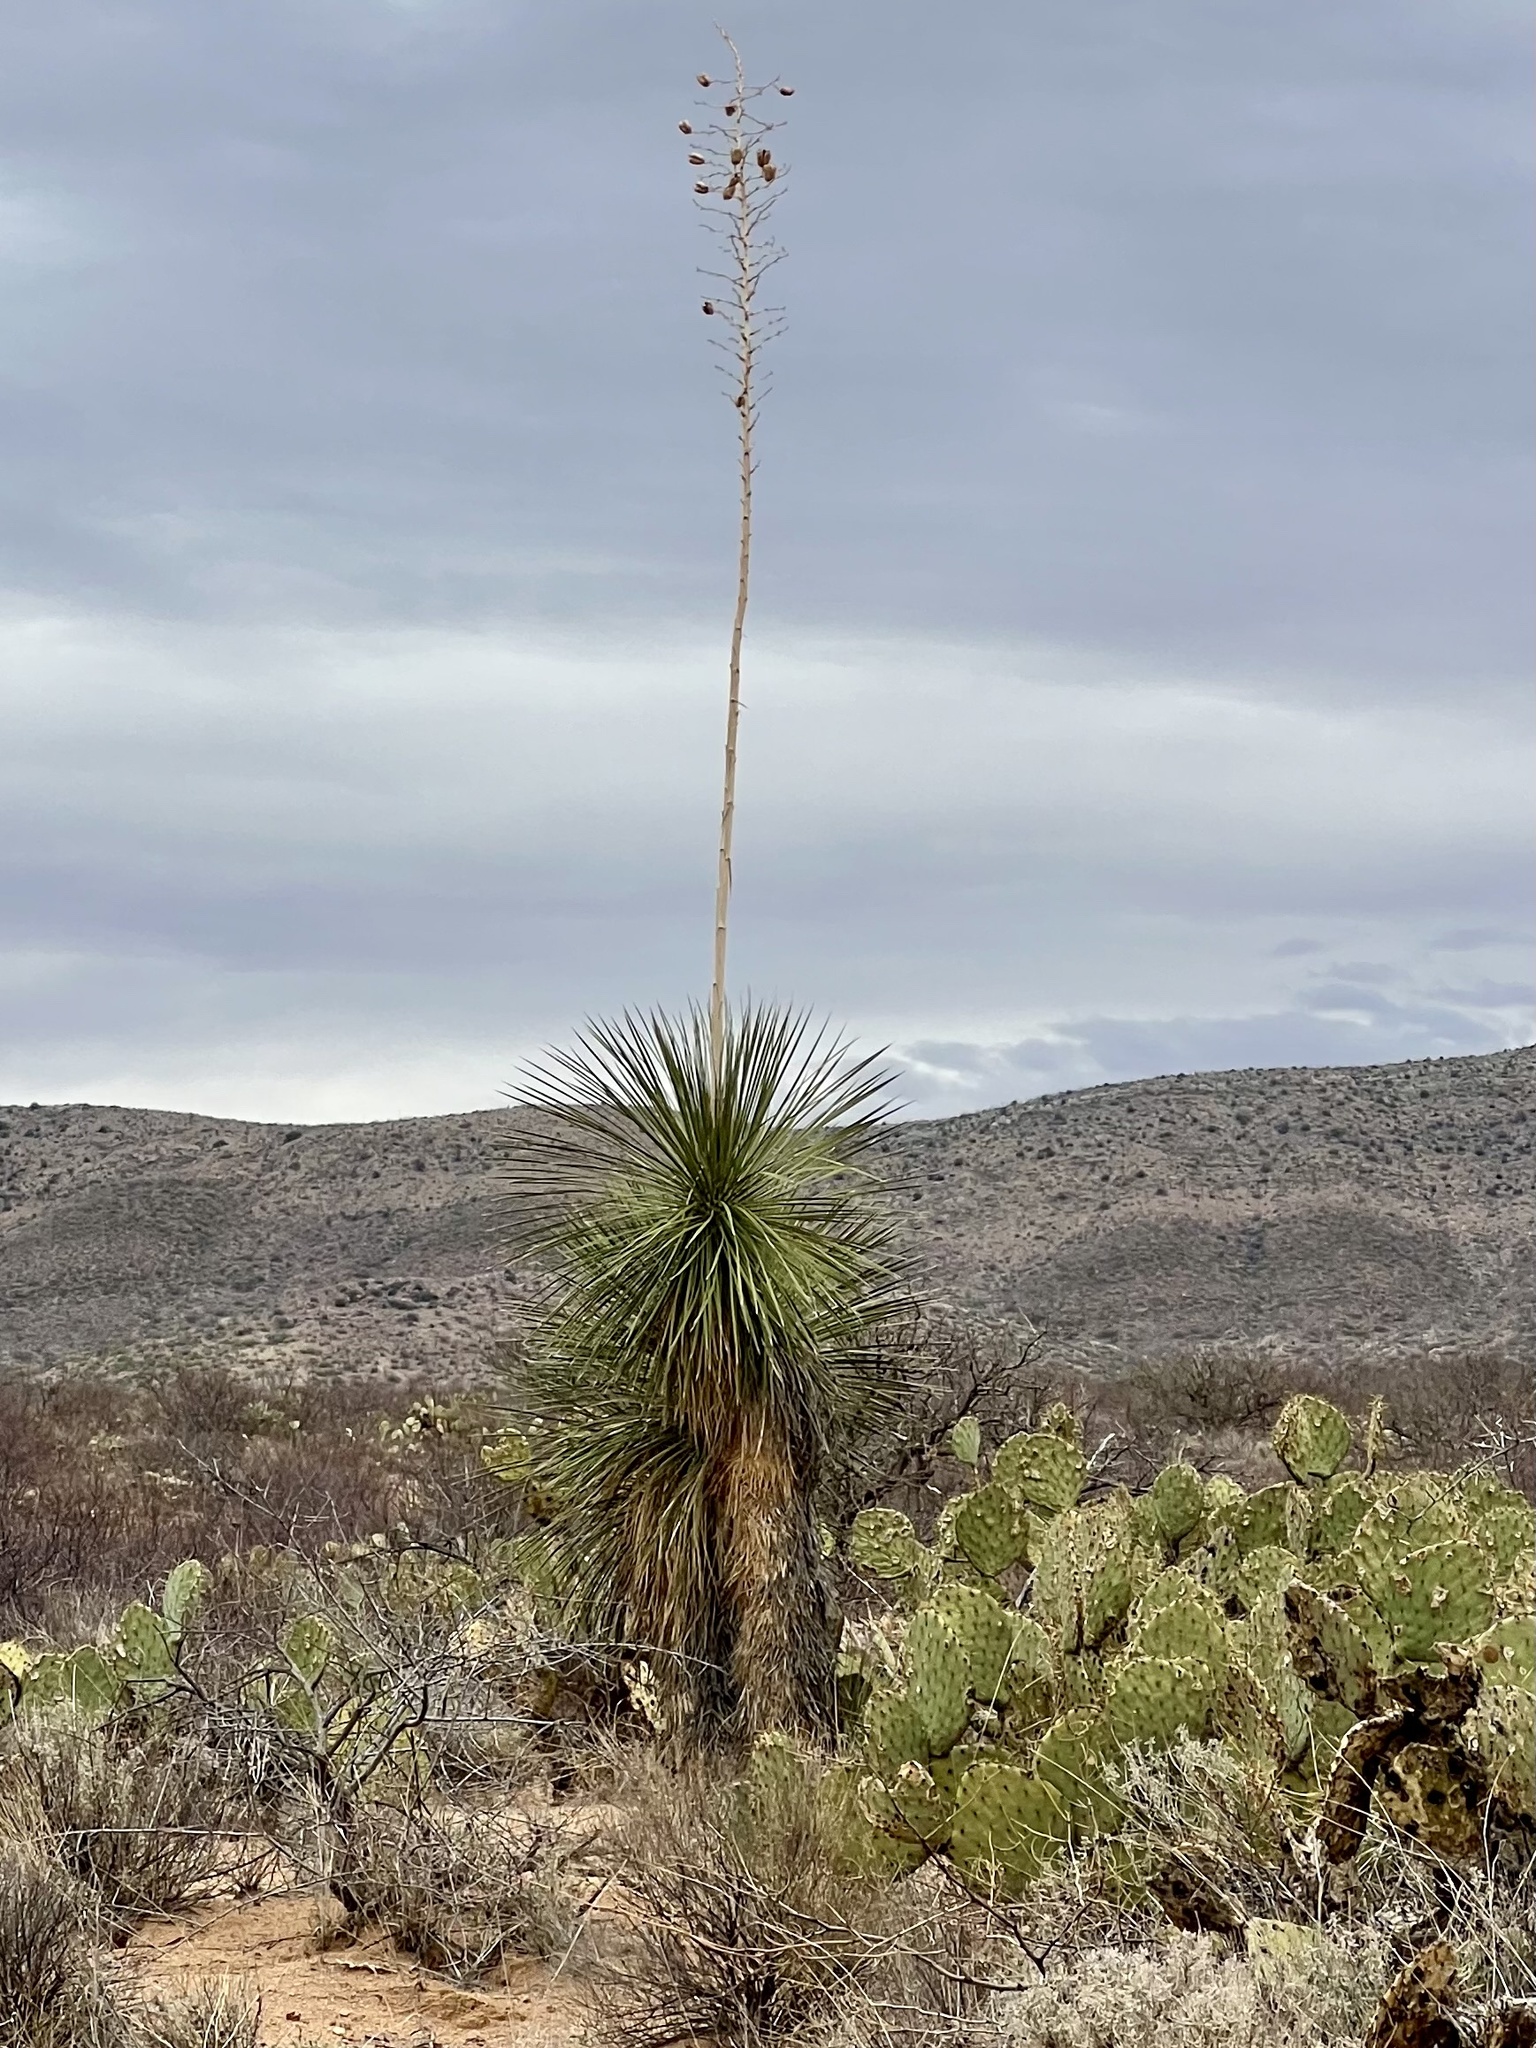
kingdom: Plantae
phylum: Tracheophyta
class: Liliopsida
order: Asparagales
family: Asparagaceae
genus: Yucca
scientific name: Yucca elata
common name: Palmella
